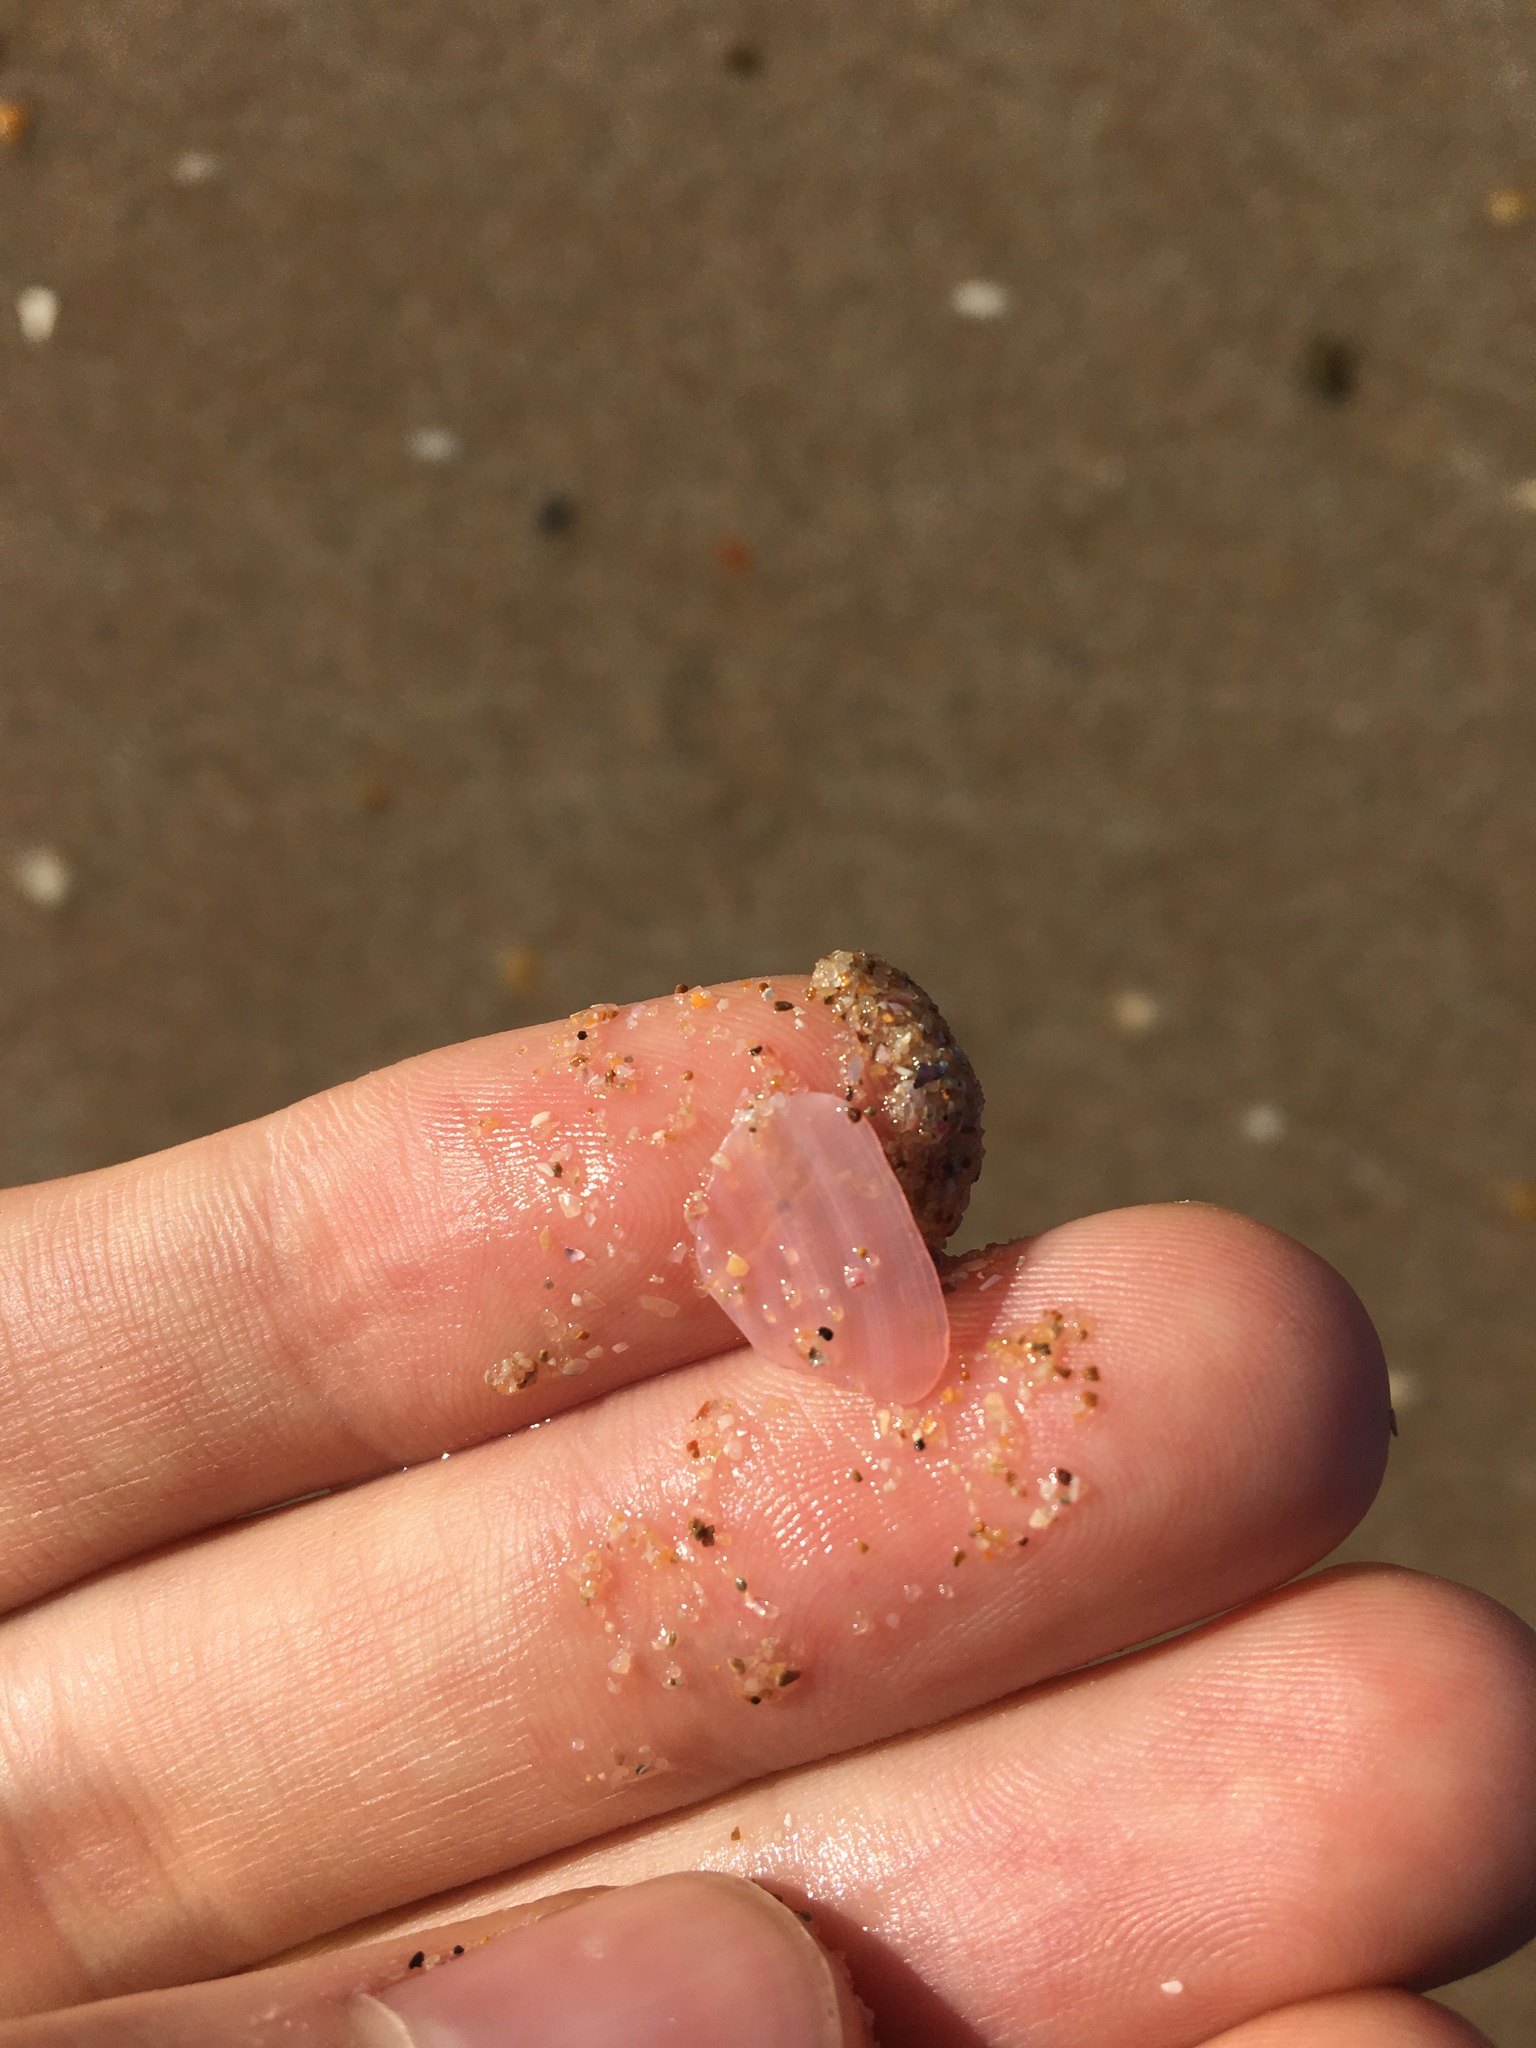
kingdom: Animalia
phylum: Mollusca
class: Bivalvia
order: Cardiida
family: Tellinidae
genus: Tellinota
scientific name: Tellinota albinella
